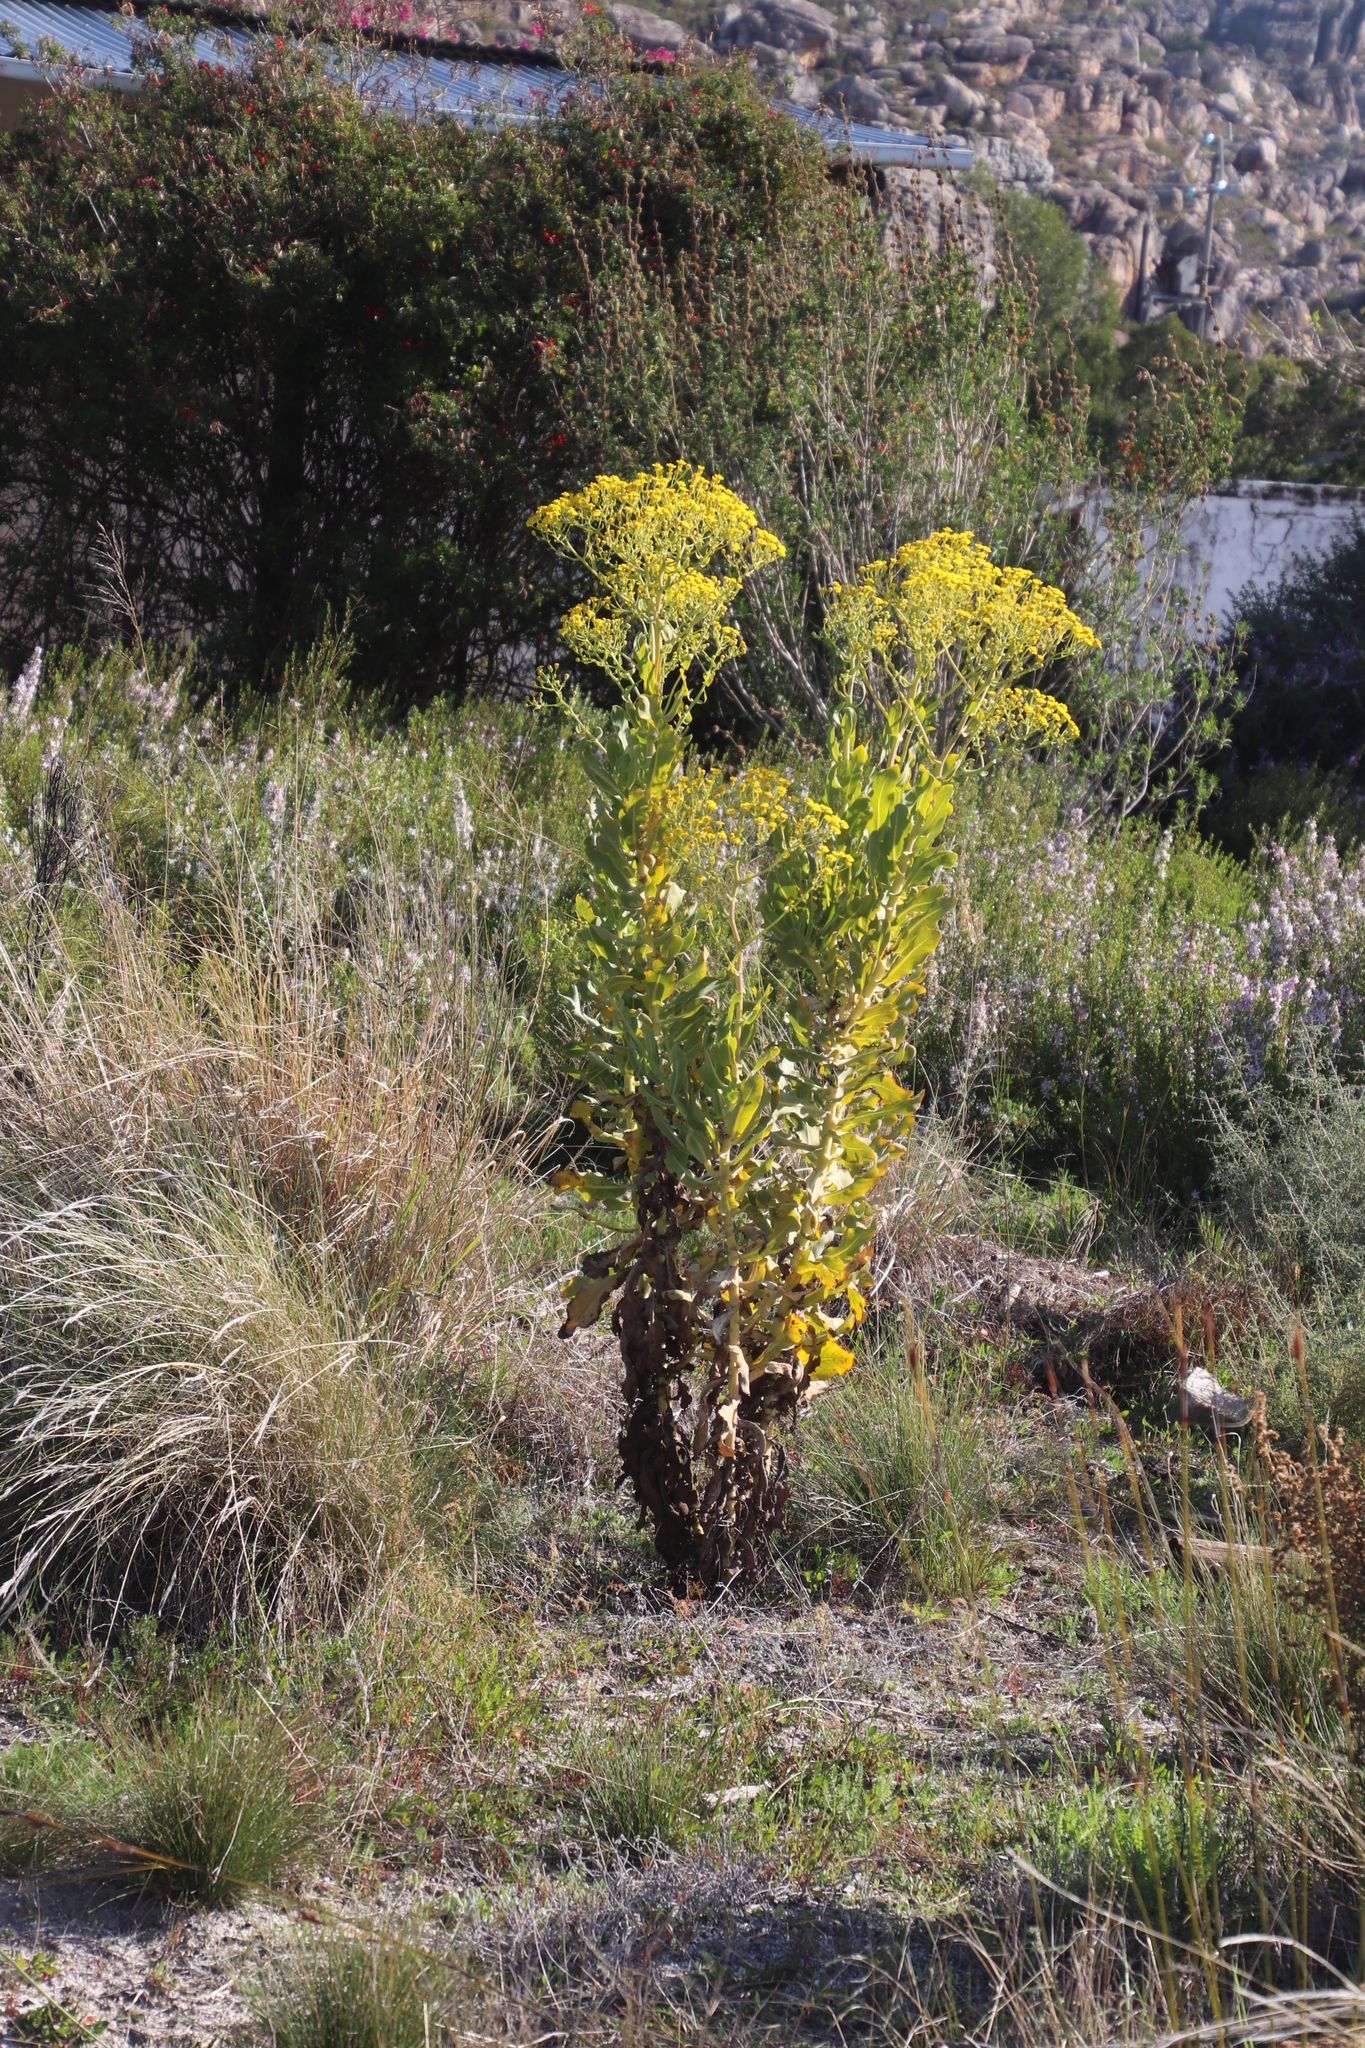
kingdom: Plantae
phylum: Tracheophyta
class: Magnoliopsida
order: Asterales
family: Asteraceae
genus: Othonna
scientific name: Othonna parviflora
